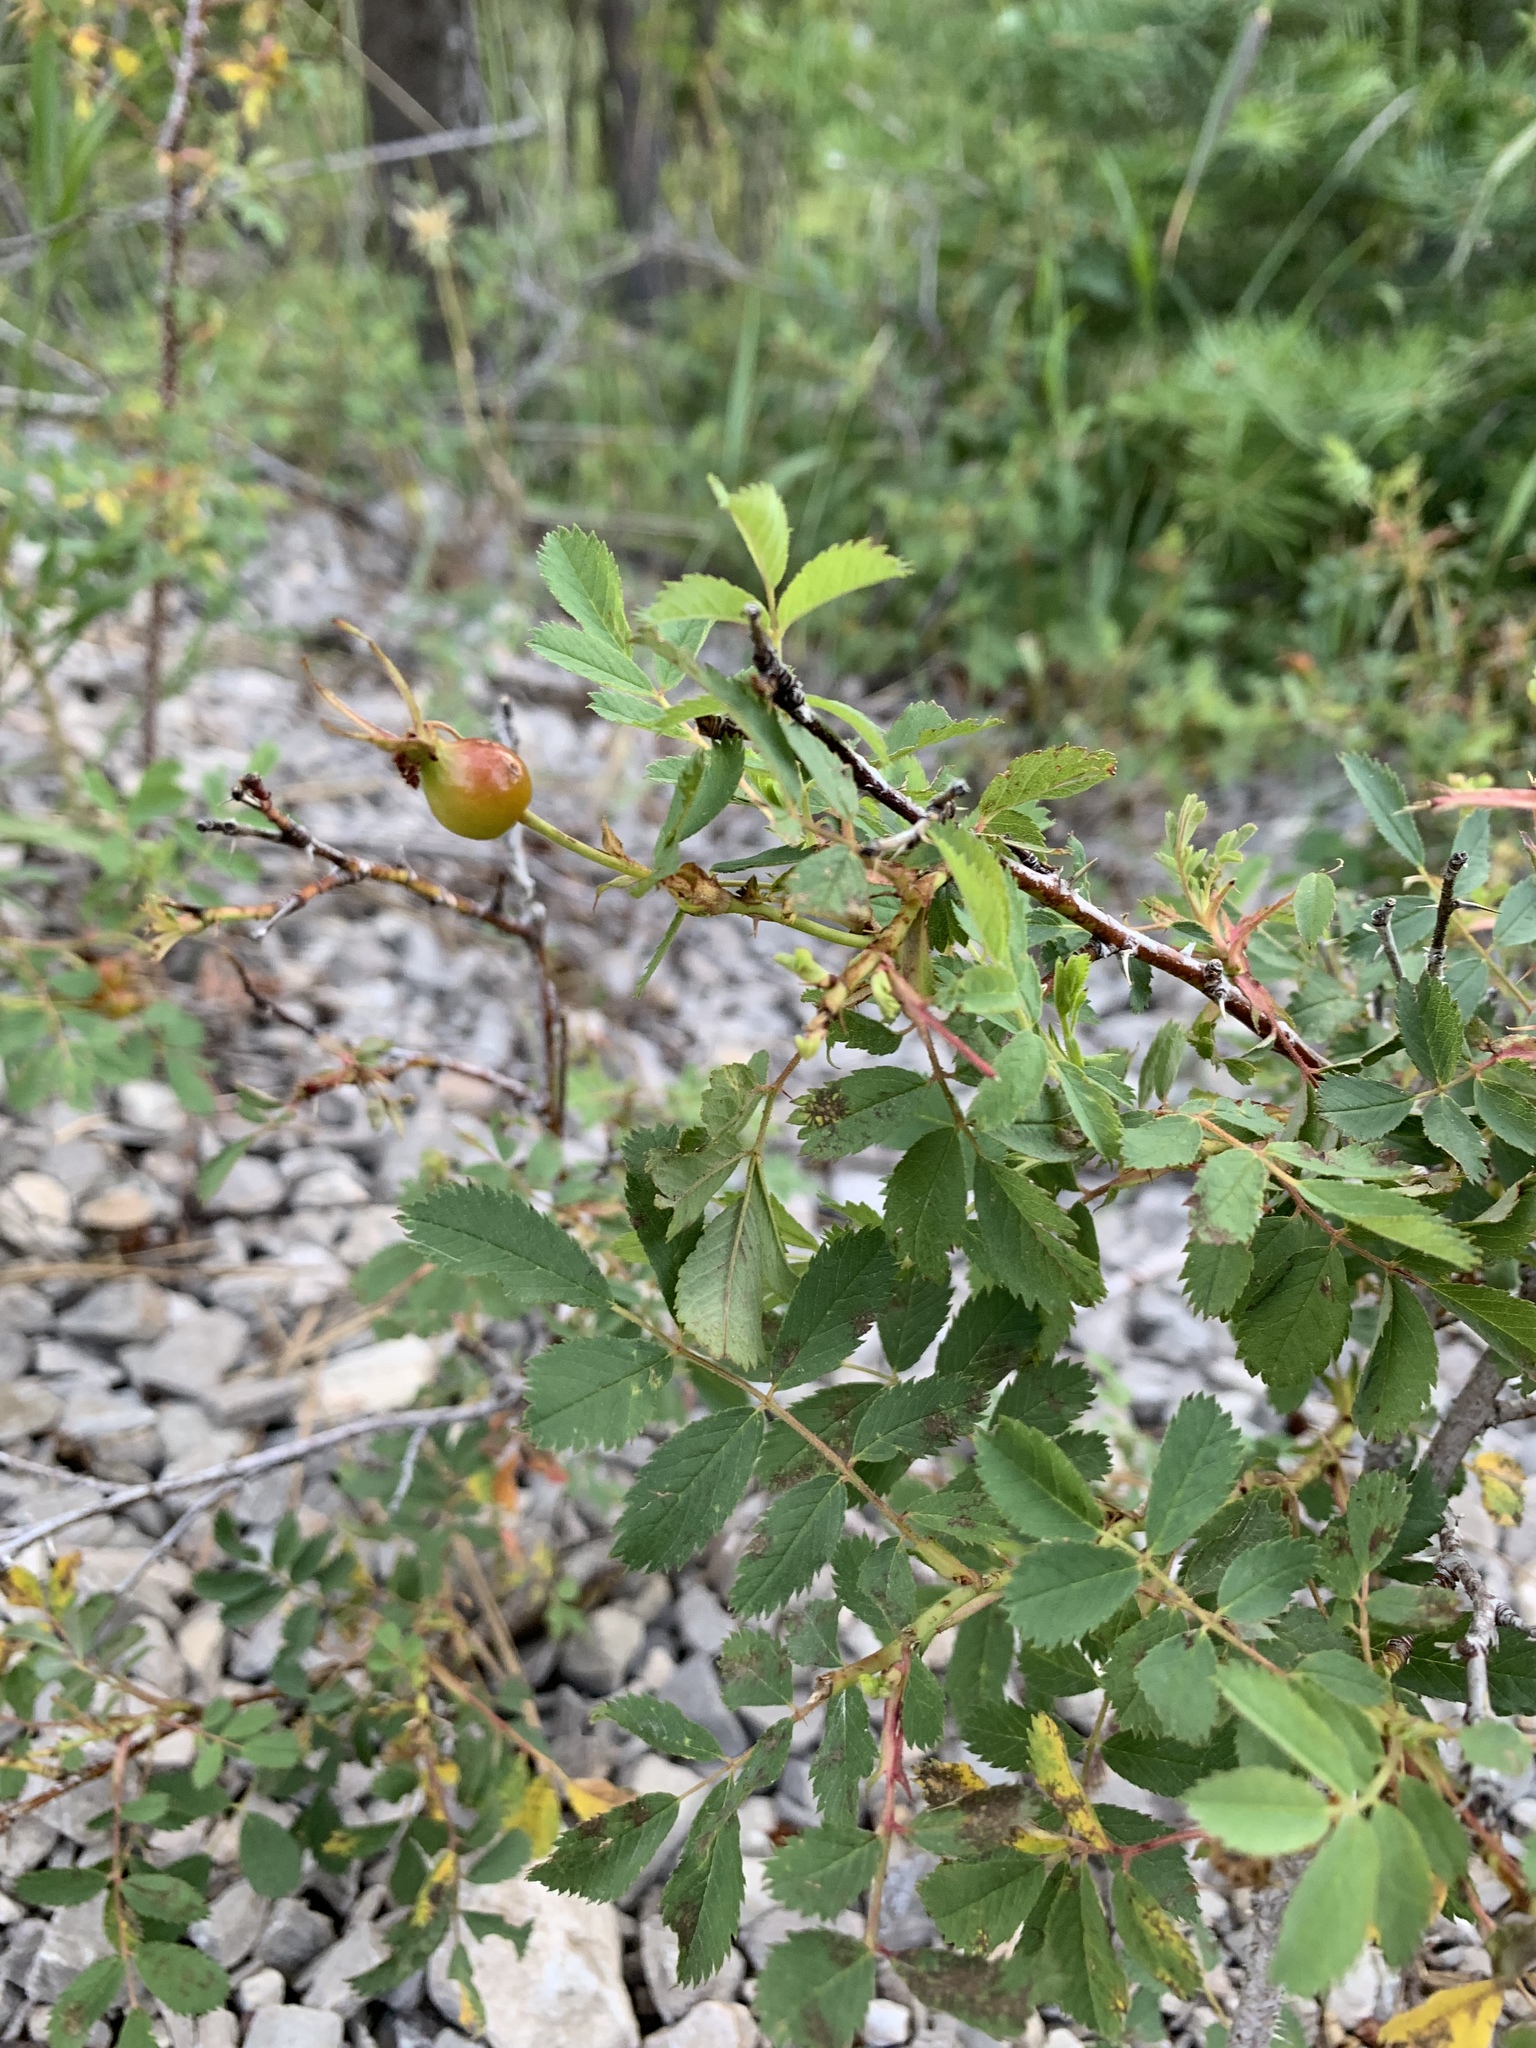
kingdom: Plantae
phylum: Tracheophyta
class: Magnoliopsida
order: Rosales
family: Rosaceae
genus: Rosa
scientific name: Rosa woodsii
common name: Woods's rose
